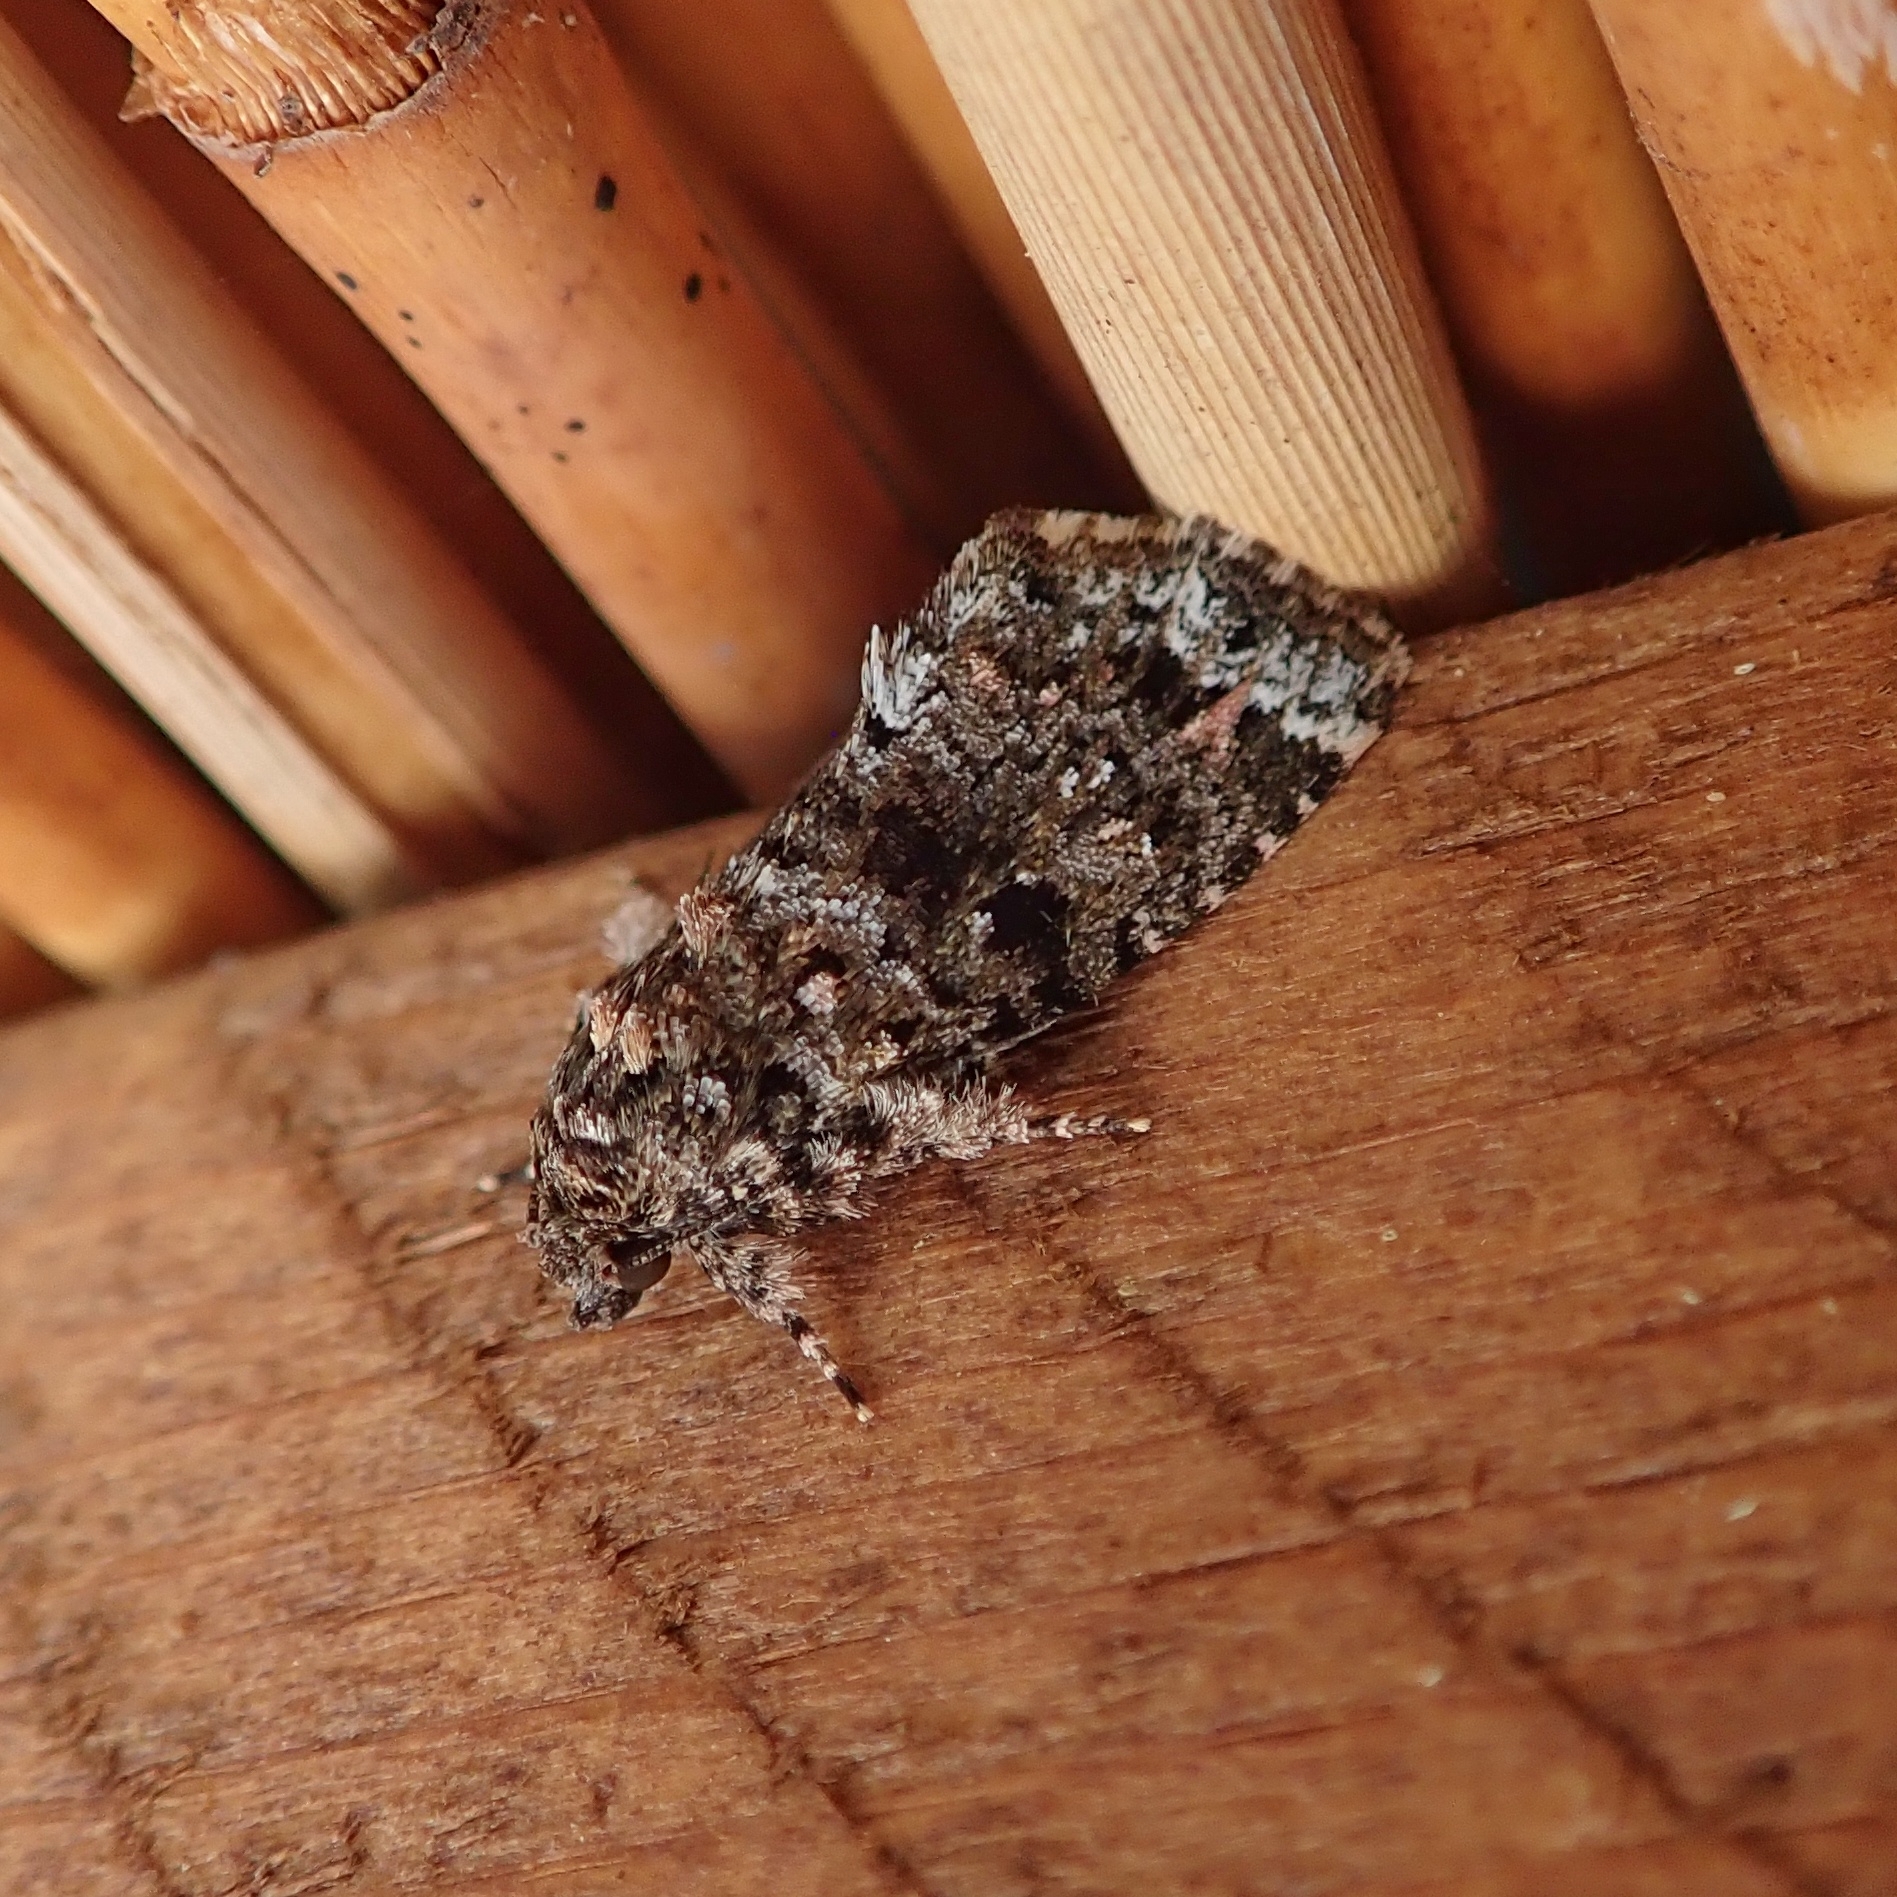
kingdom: Animalia
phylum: Arthropoda
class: Insecta
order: Lepidoptera
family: Noctuidae
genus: Callopistria
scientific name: Callopistria latreillei
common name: Latreille's latin
